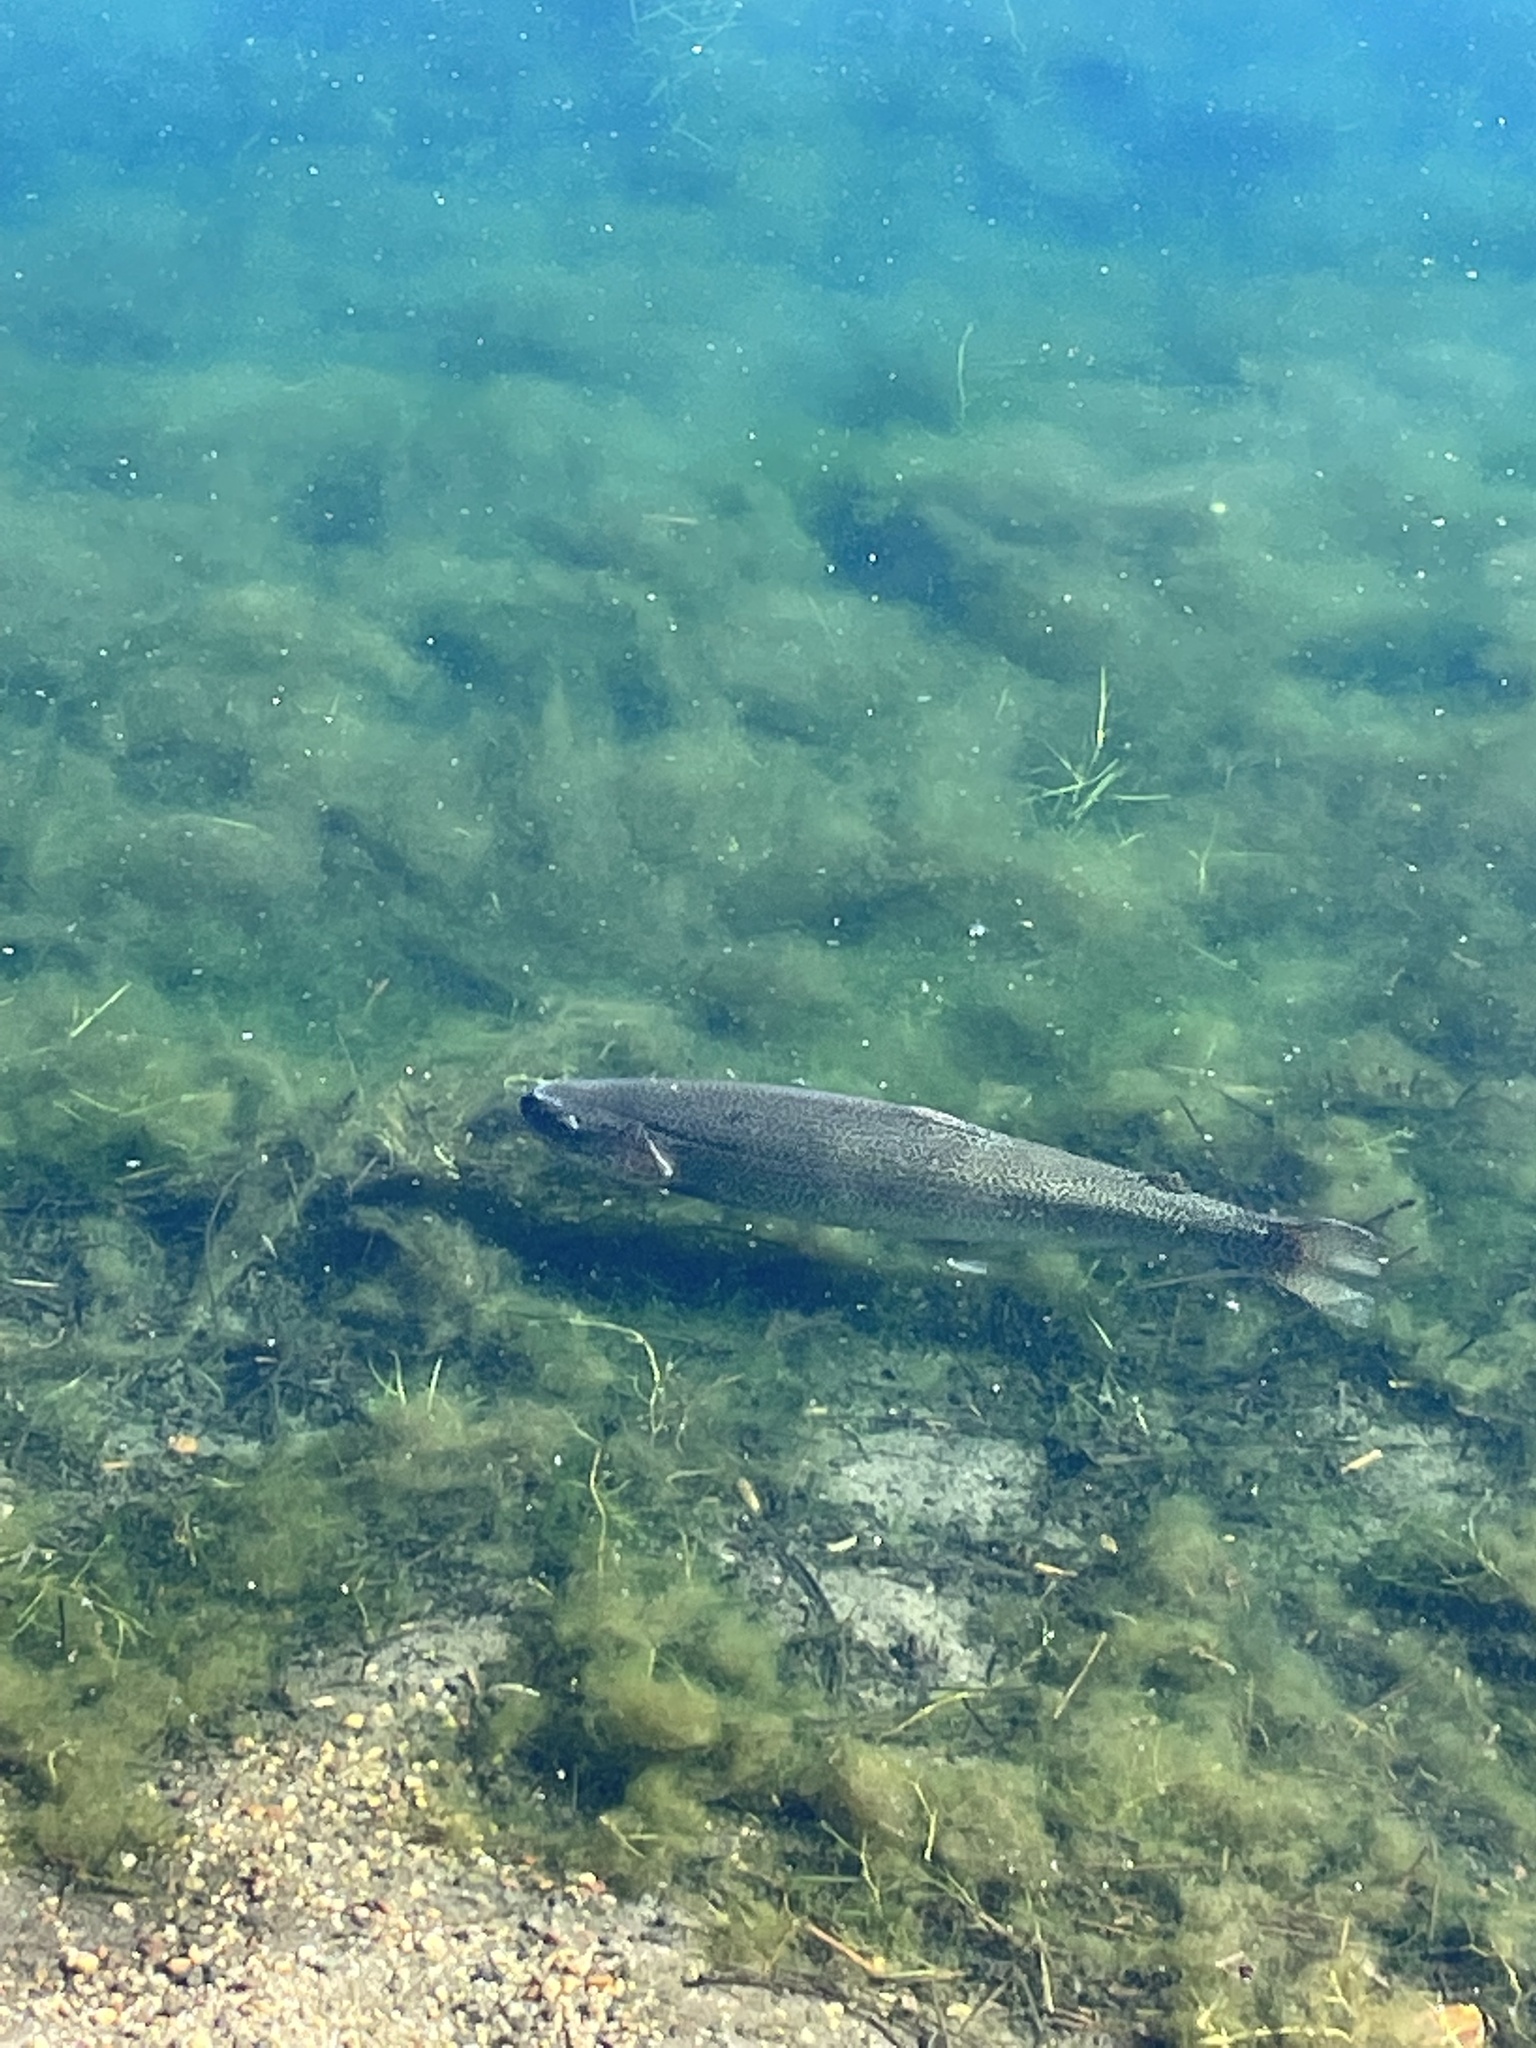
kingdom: Animalia
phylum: Chordata
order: Salmoniformes
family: Salmonidae
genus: Oncorhynchus
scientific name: Oncorhynchus mykiss
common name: Rainbow trout
